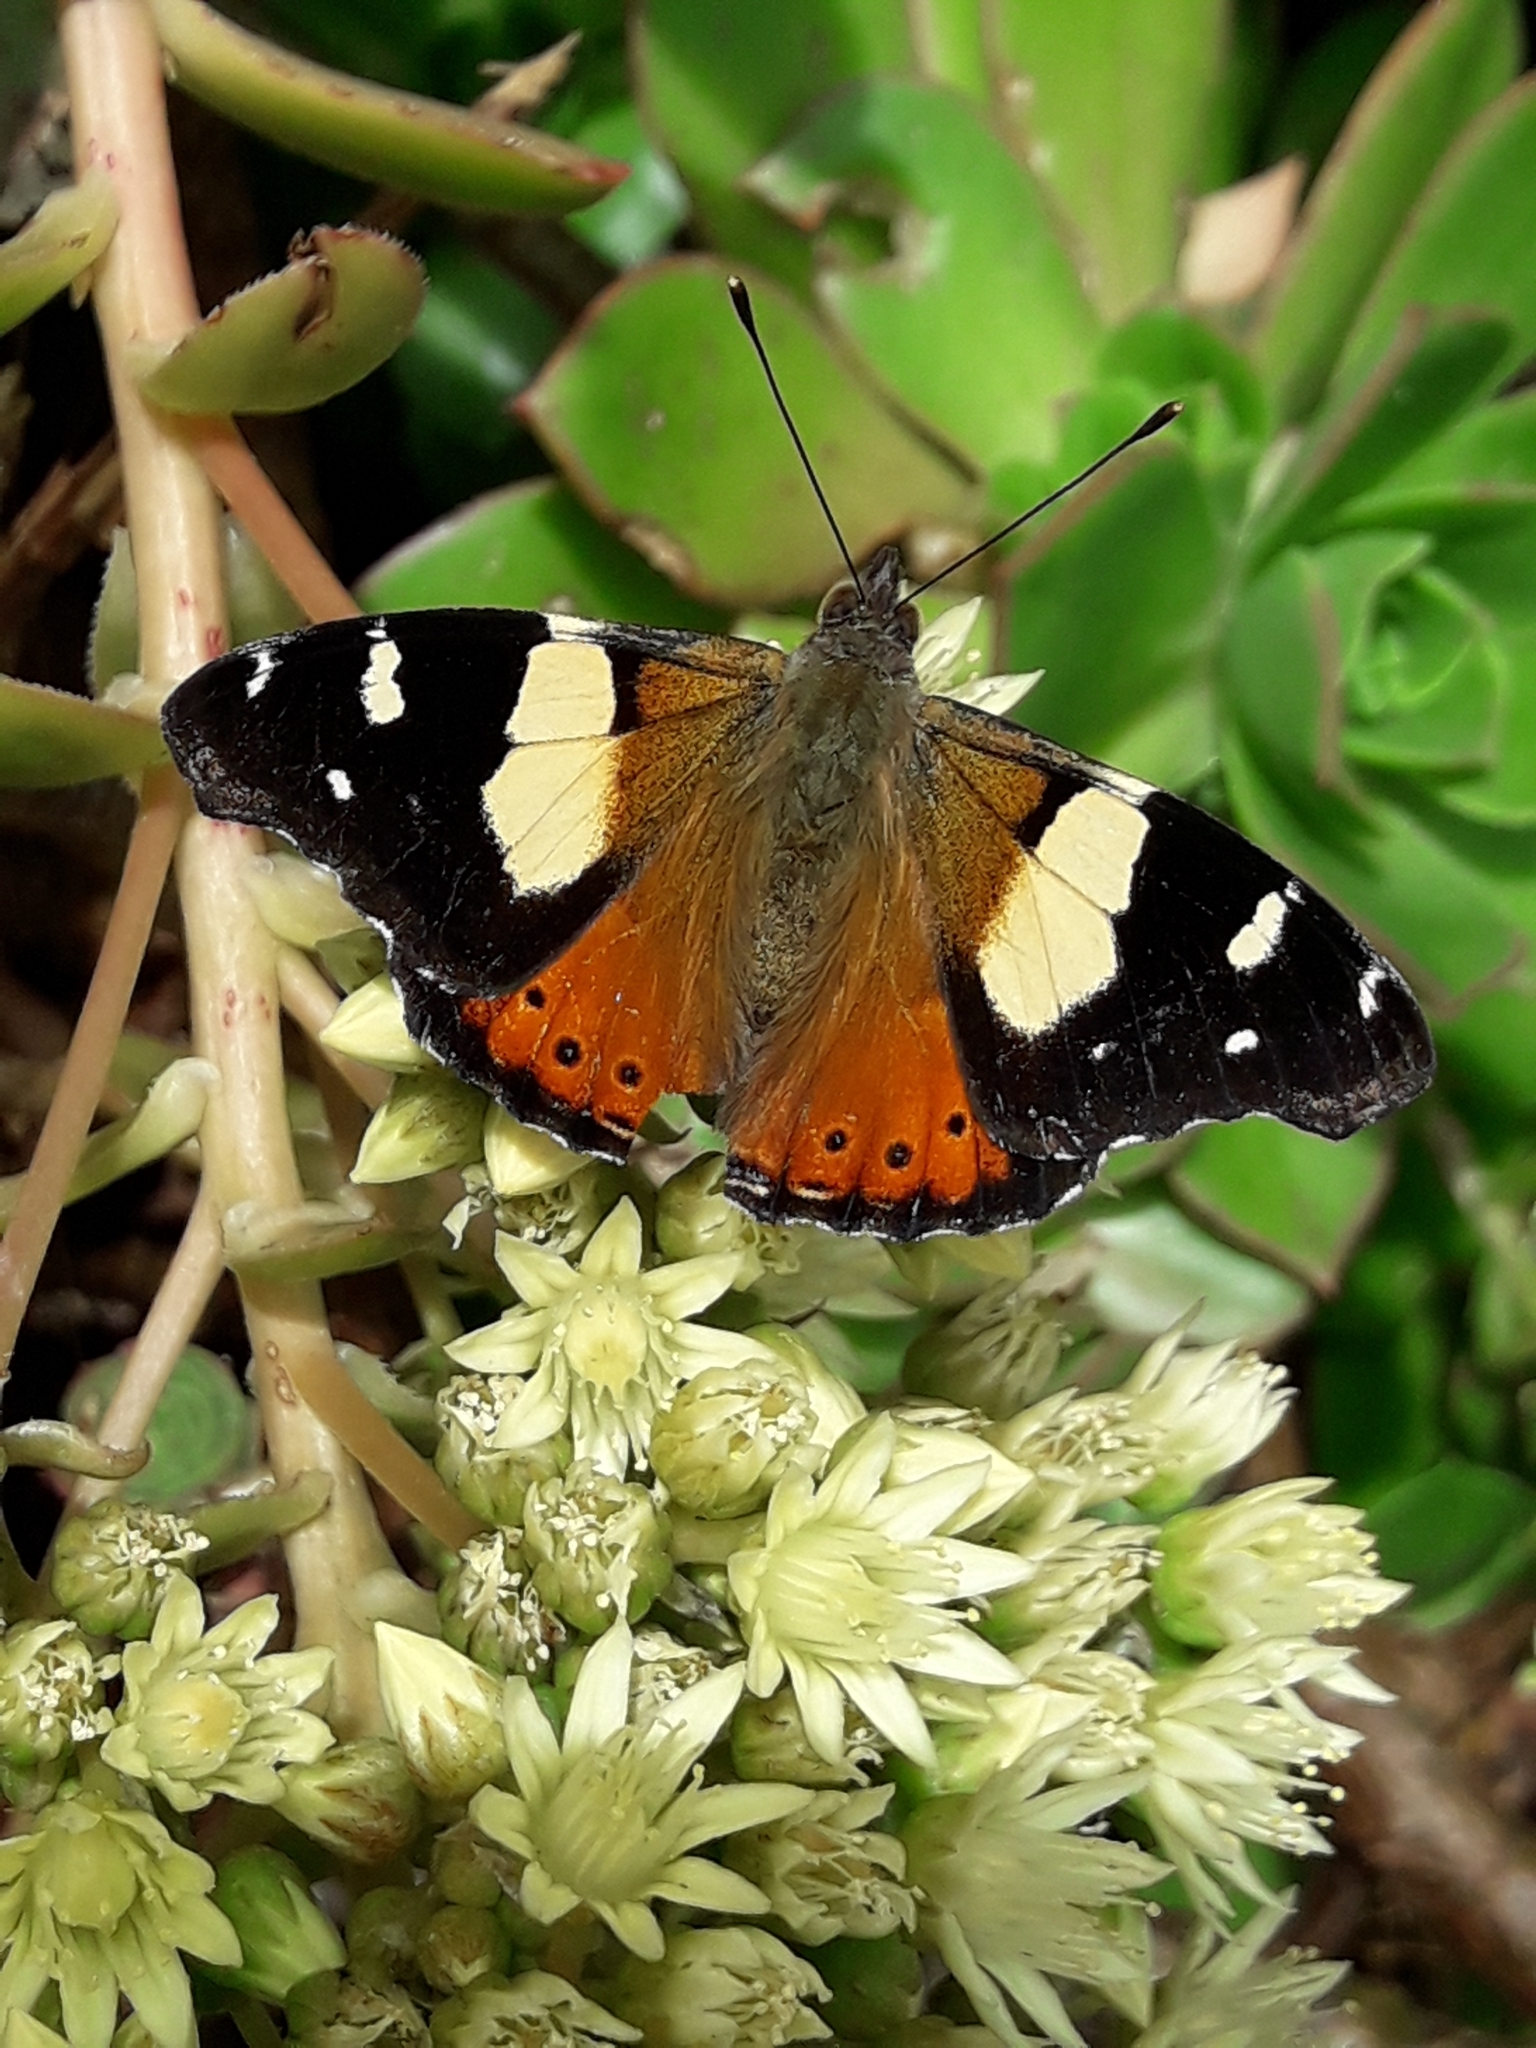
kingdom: Animalia
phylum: Arthropoda
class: Insecta
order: Lepidoptera
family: Nymphalidae
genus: Vanessa
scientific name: Vanessa itea
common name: Yellow admiral
